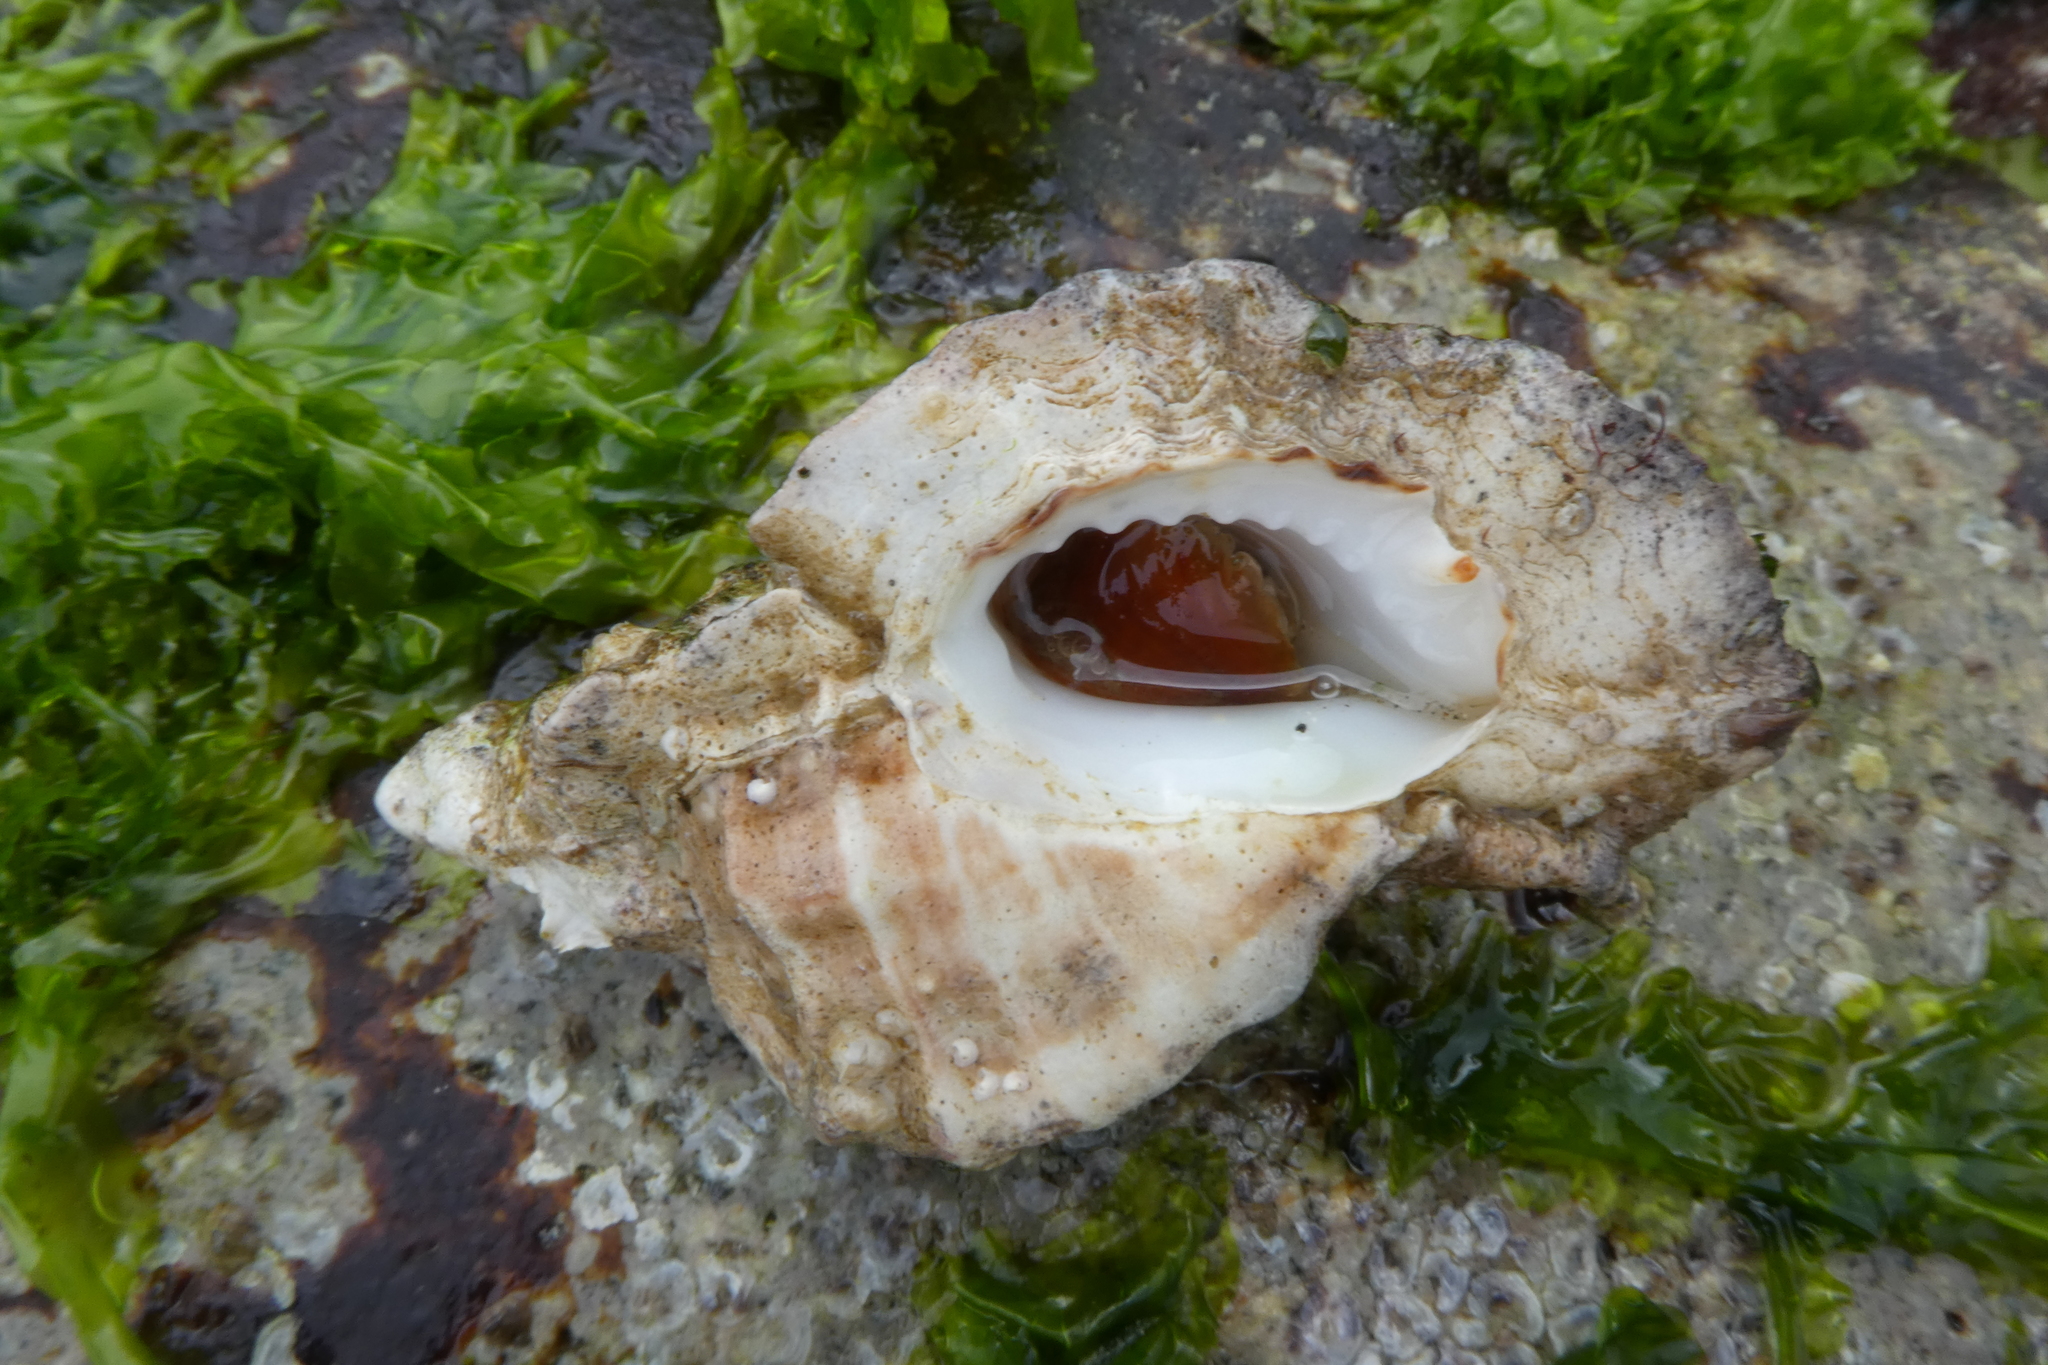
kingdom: Animalia
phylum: Mollusca
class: Gastropoda
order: Neogastropoda
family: Muricidae
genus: Ceratostoma
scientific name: Ceratostoma foliatum
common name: Foliate thorn purpura
